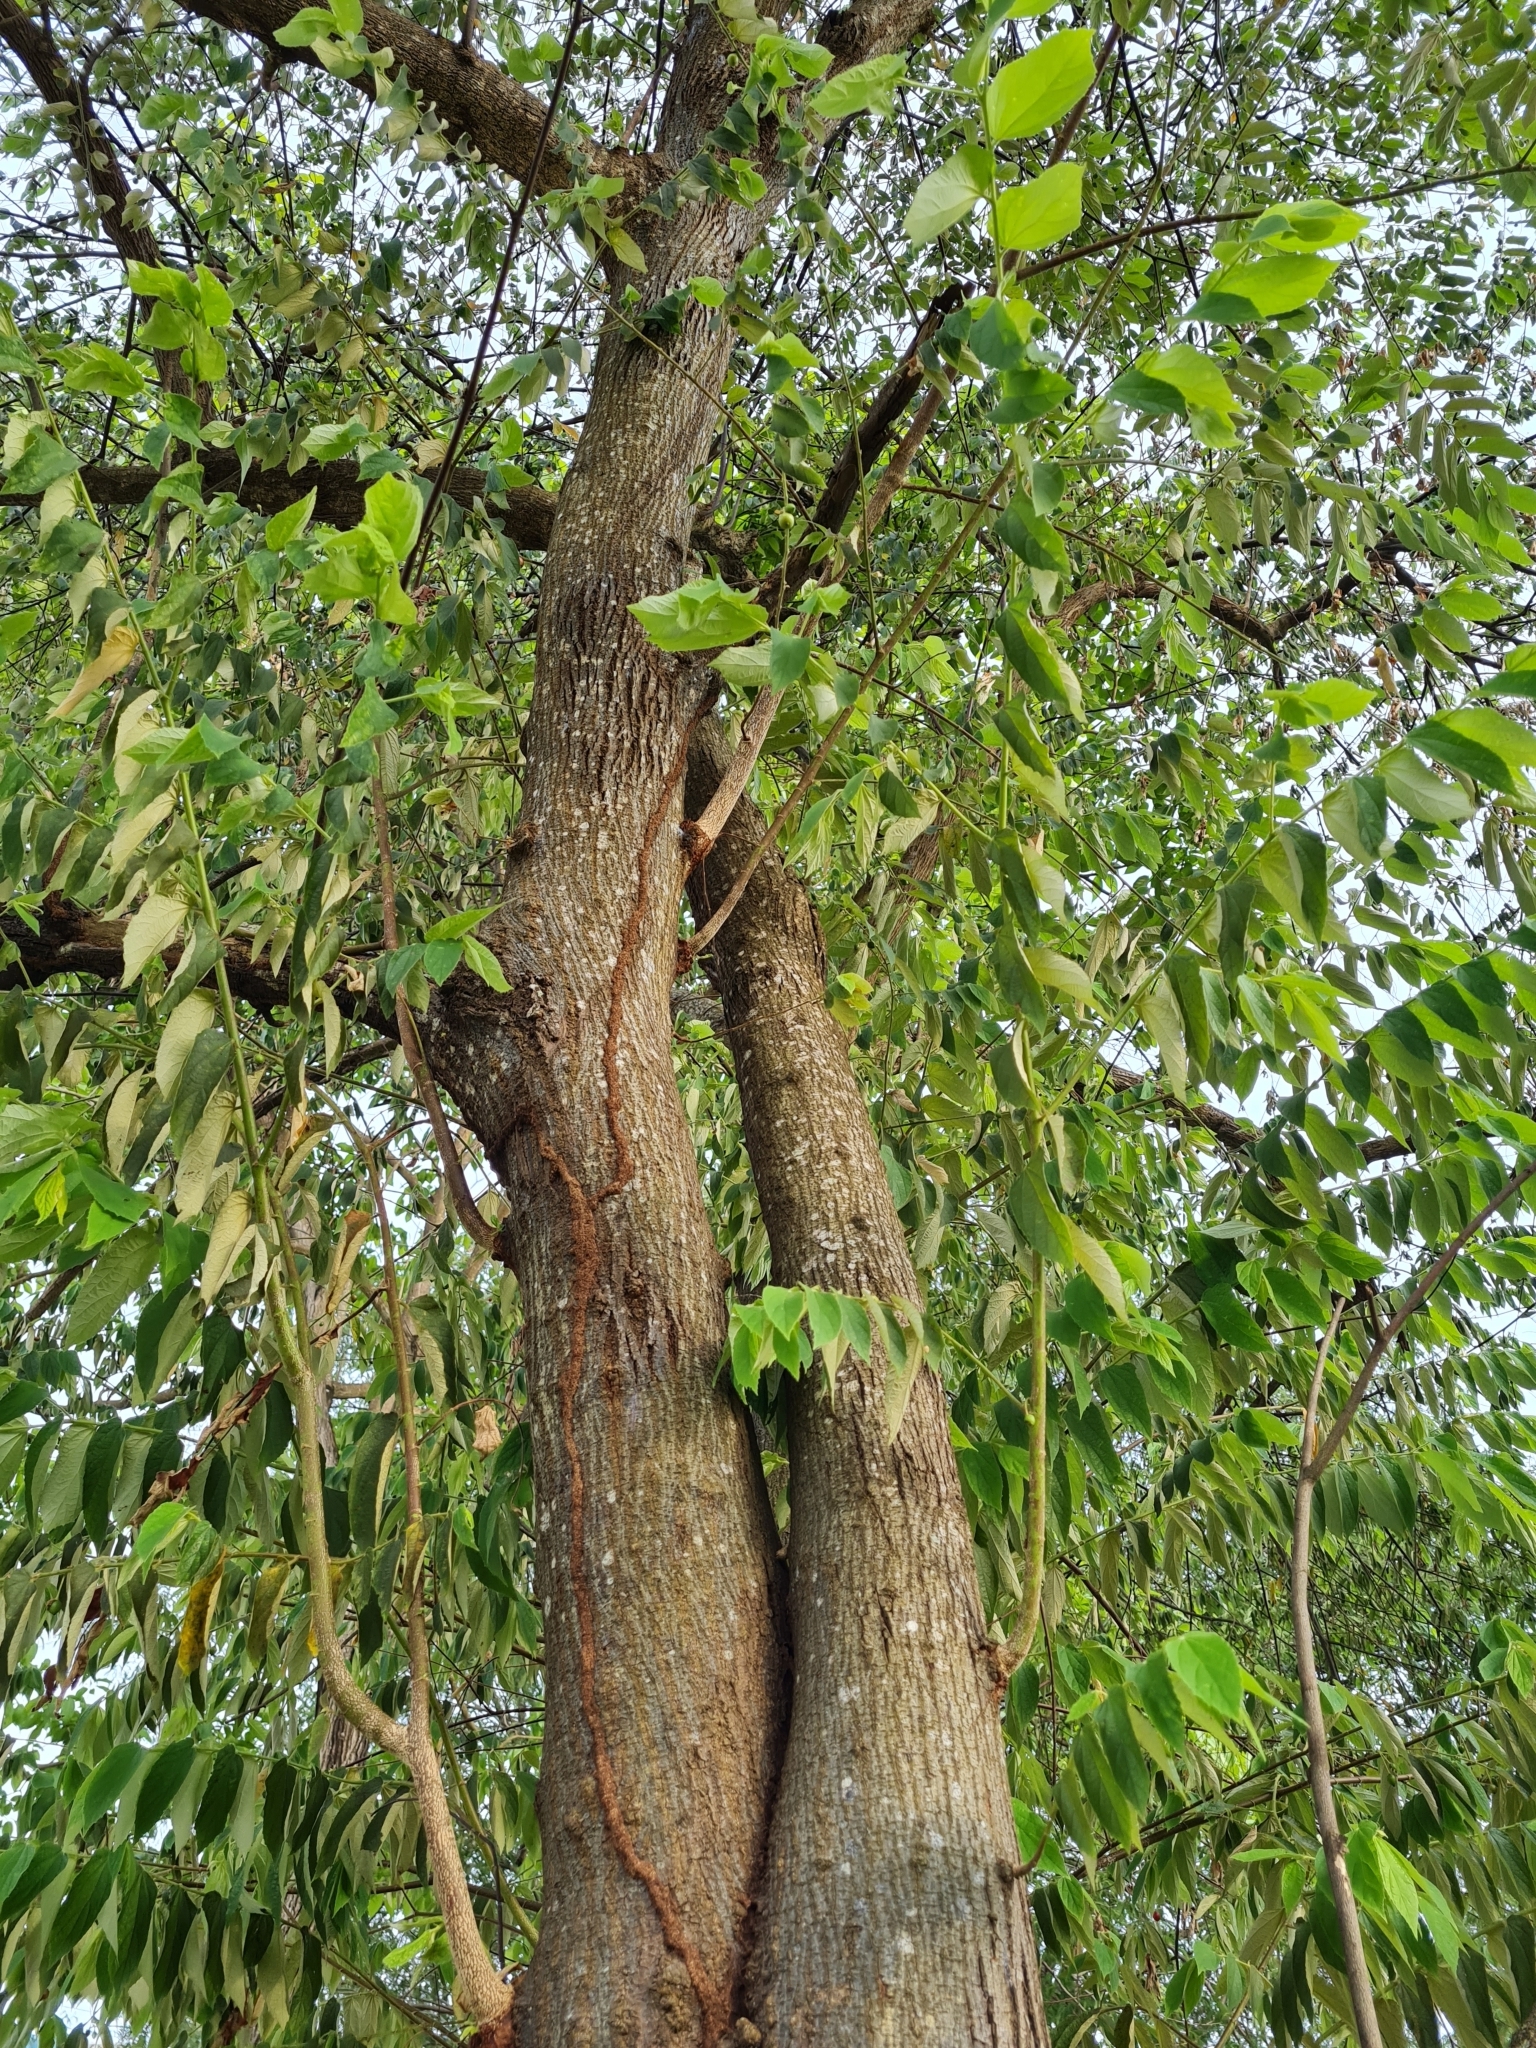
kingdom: Plantae
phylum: Tracheophyta
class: Magnoliopsida
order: Malvales
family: Muntingiaceae
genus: Muntingia
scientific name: Muntingia calabura
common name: Strawberrytree
